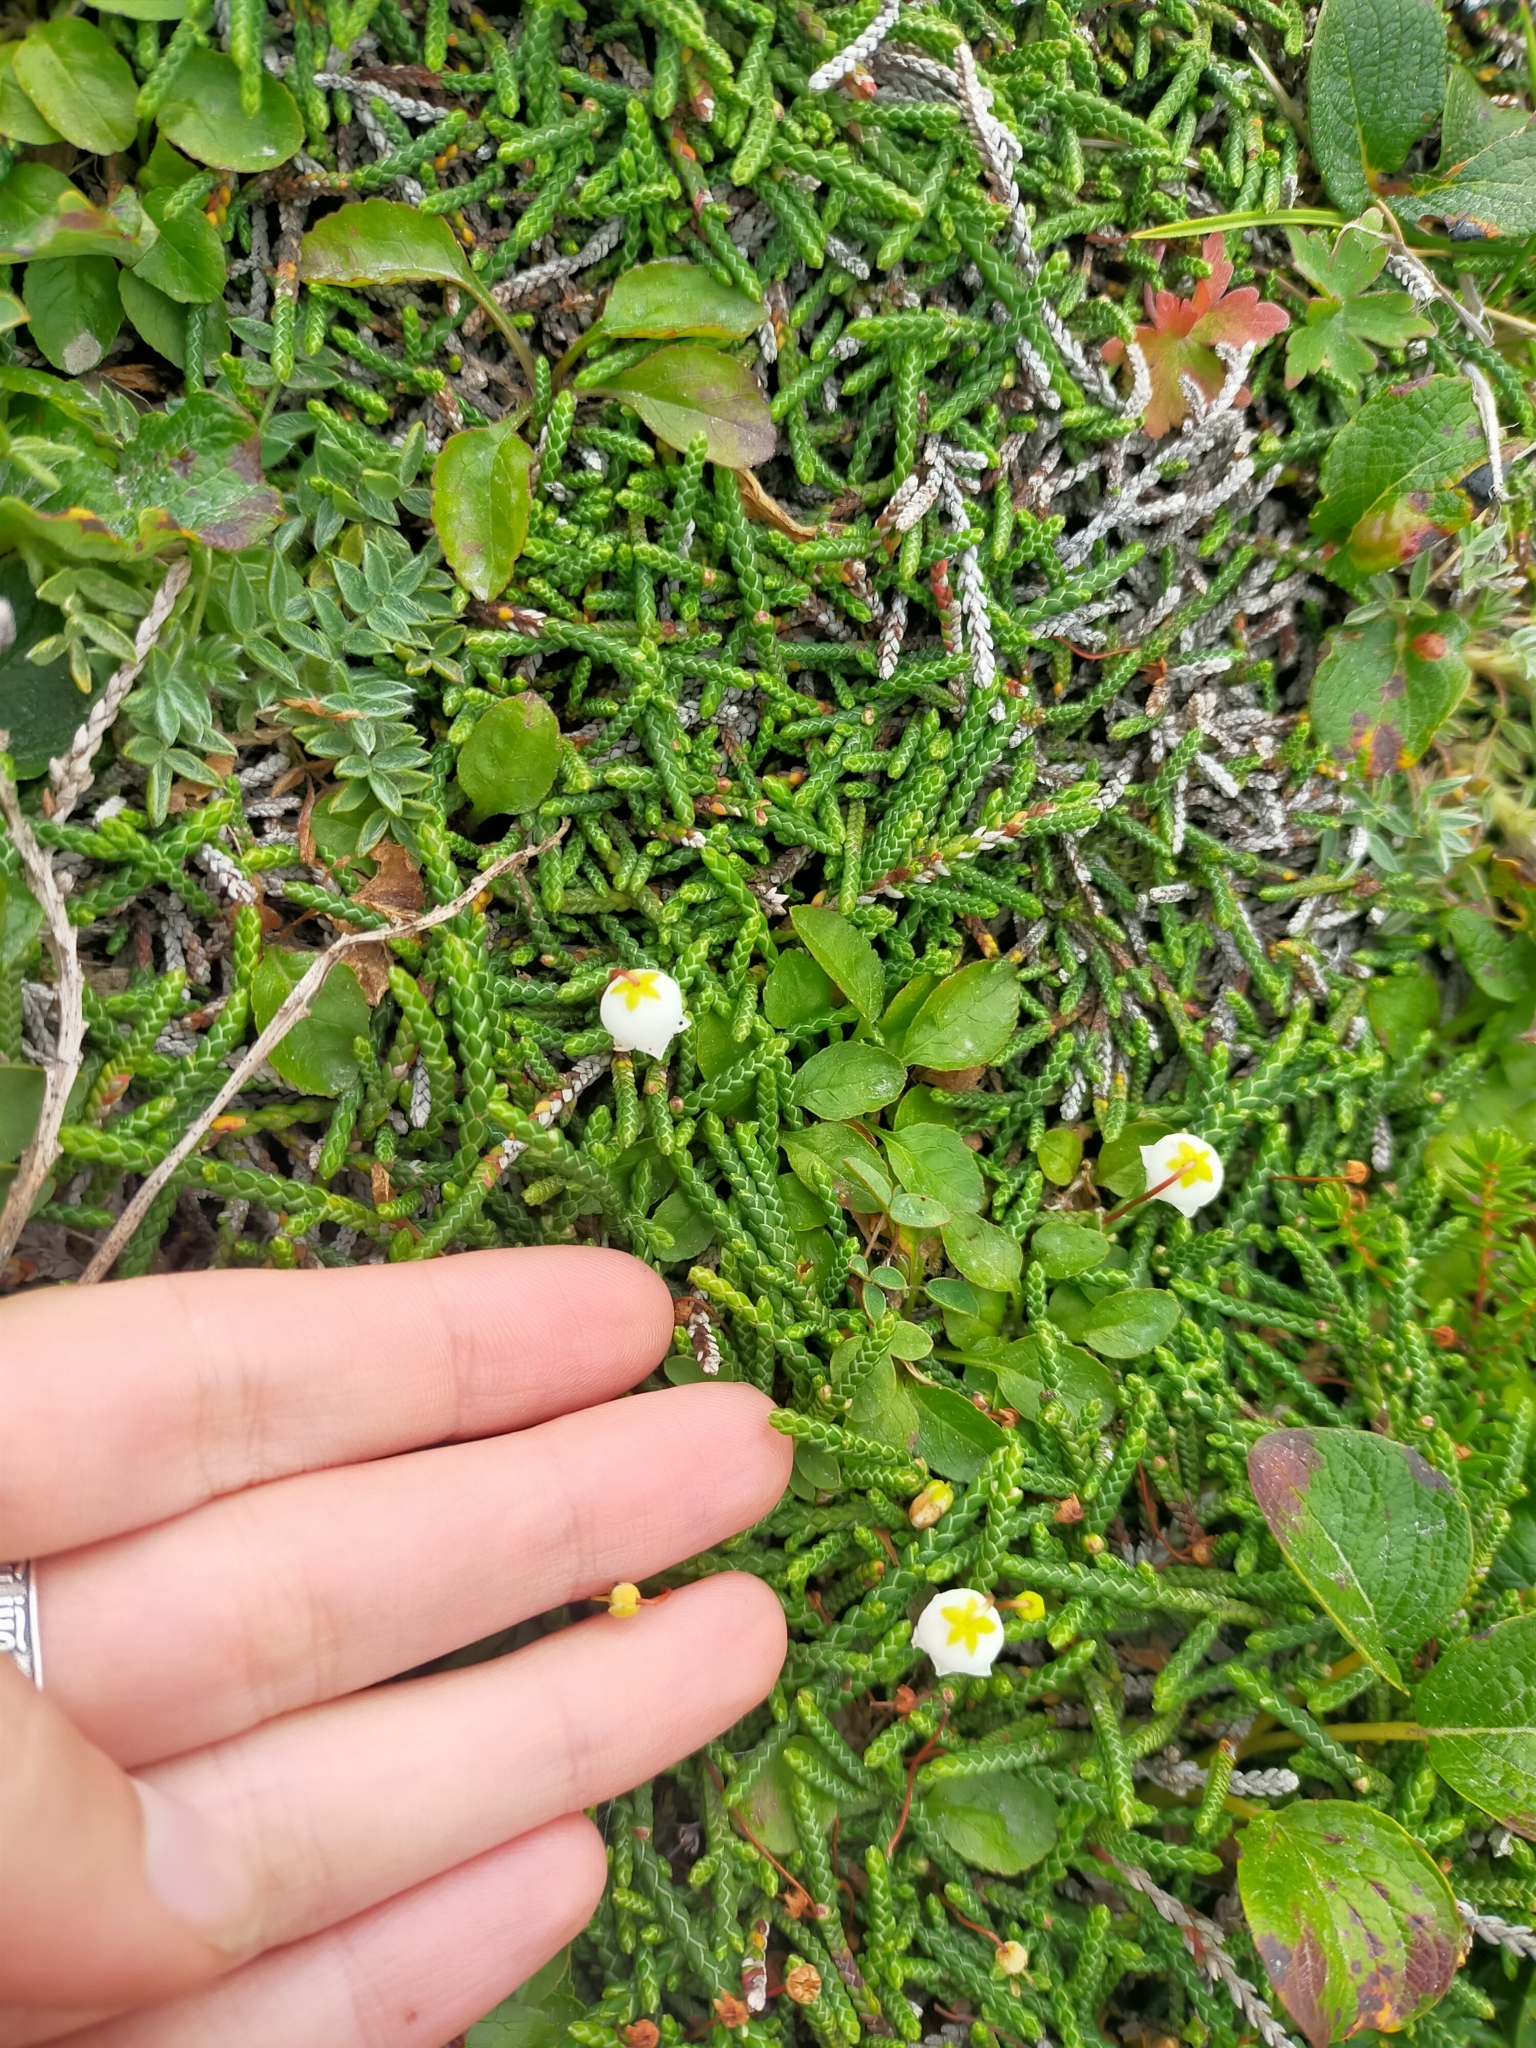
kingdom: Plantae
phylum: Tracheophyta
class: Magnoliopsida
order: Ericales
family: Ericaceae
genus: Cassiope
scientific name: Cassiope lycopodioides
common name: Clubmoss mountain heather
